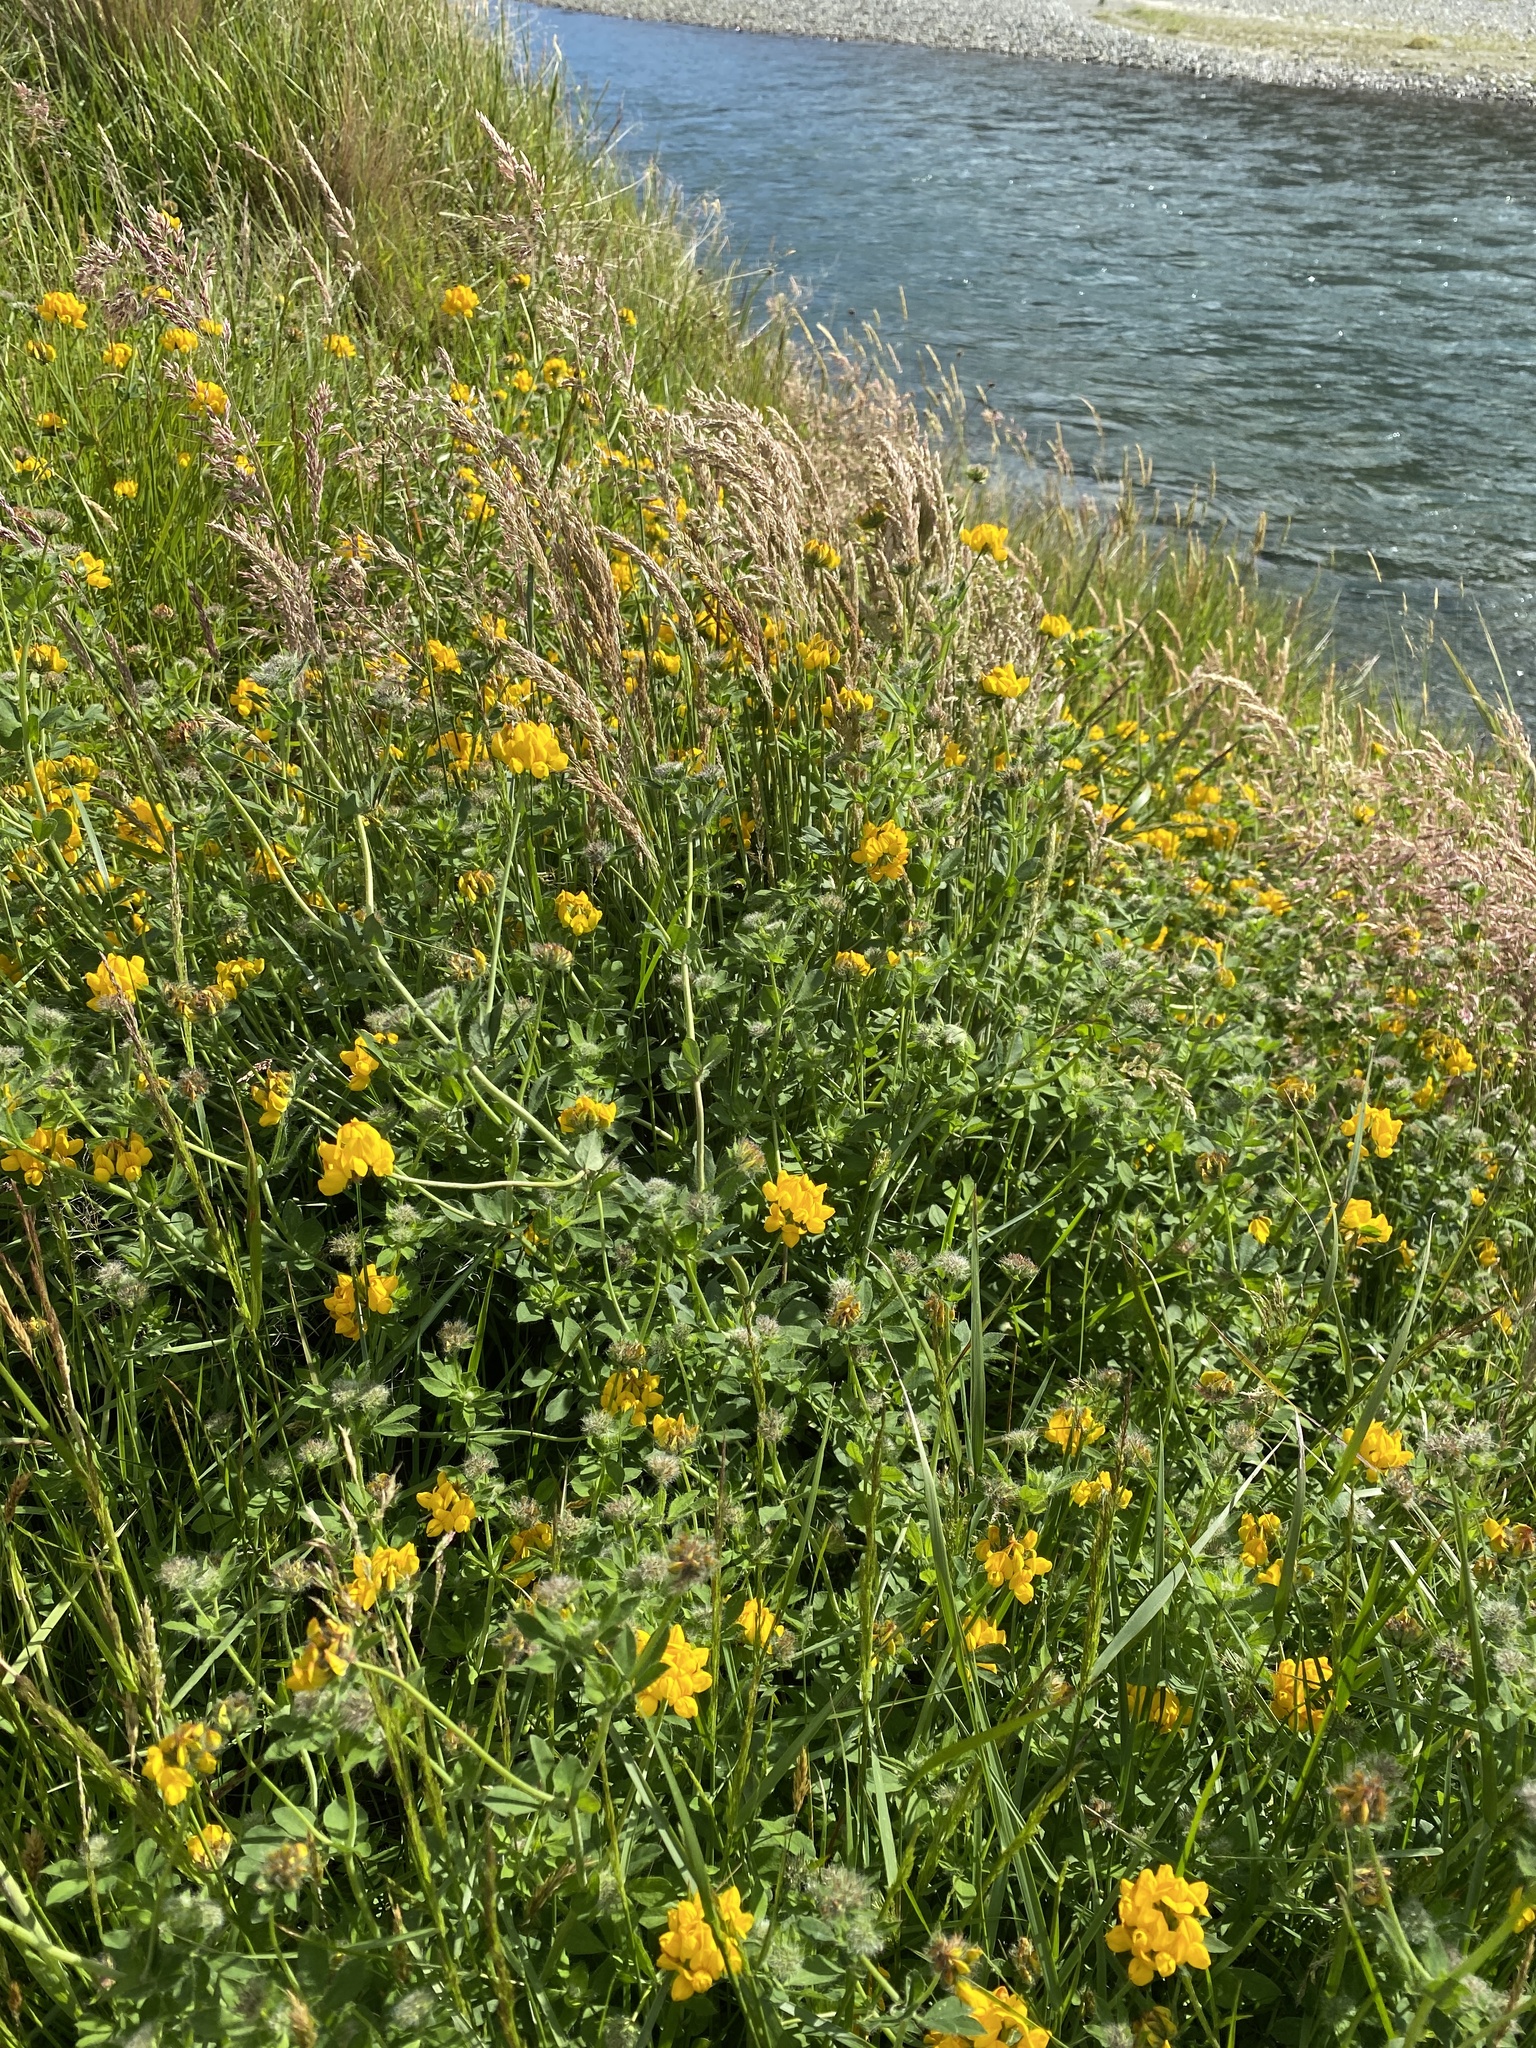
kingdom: Plantae
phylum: Tracheophyta
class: Magnoliopsida
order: Fabales
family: Fabaceae
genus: Lotus
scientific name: Lotus pedunculatus
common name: Greater birdsfoot-trefoil
